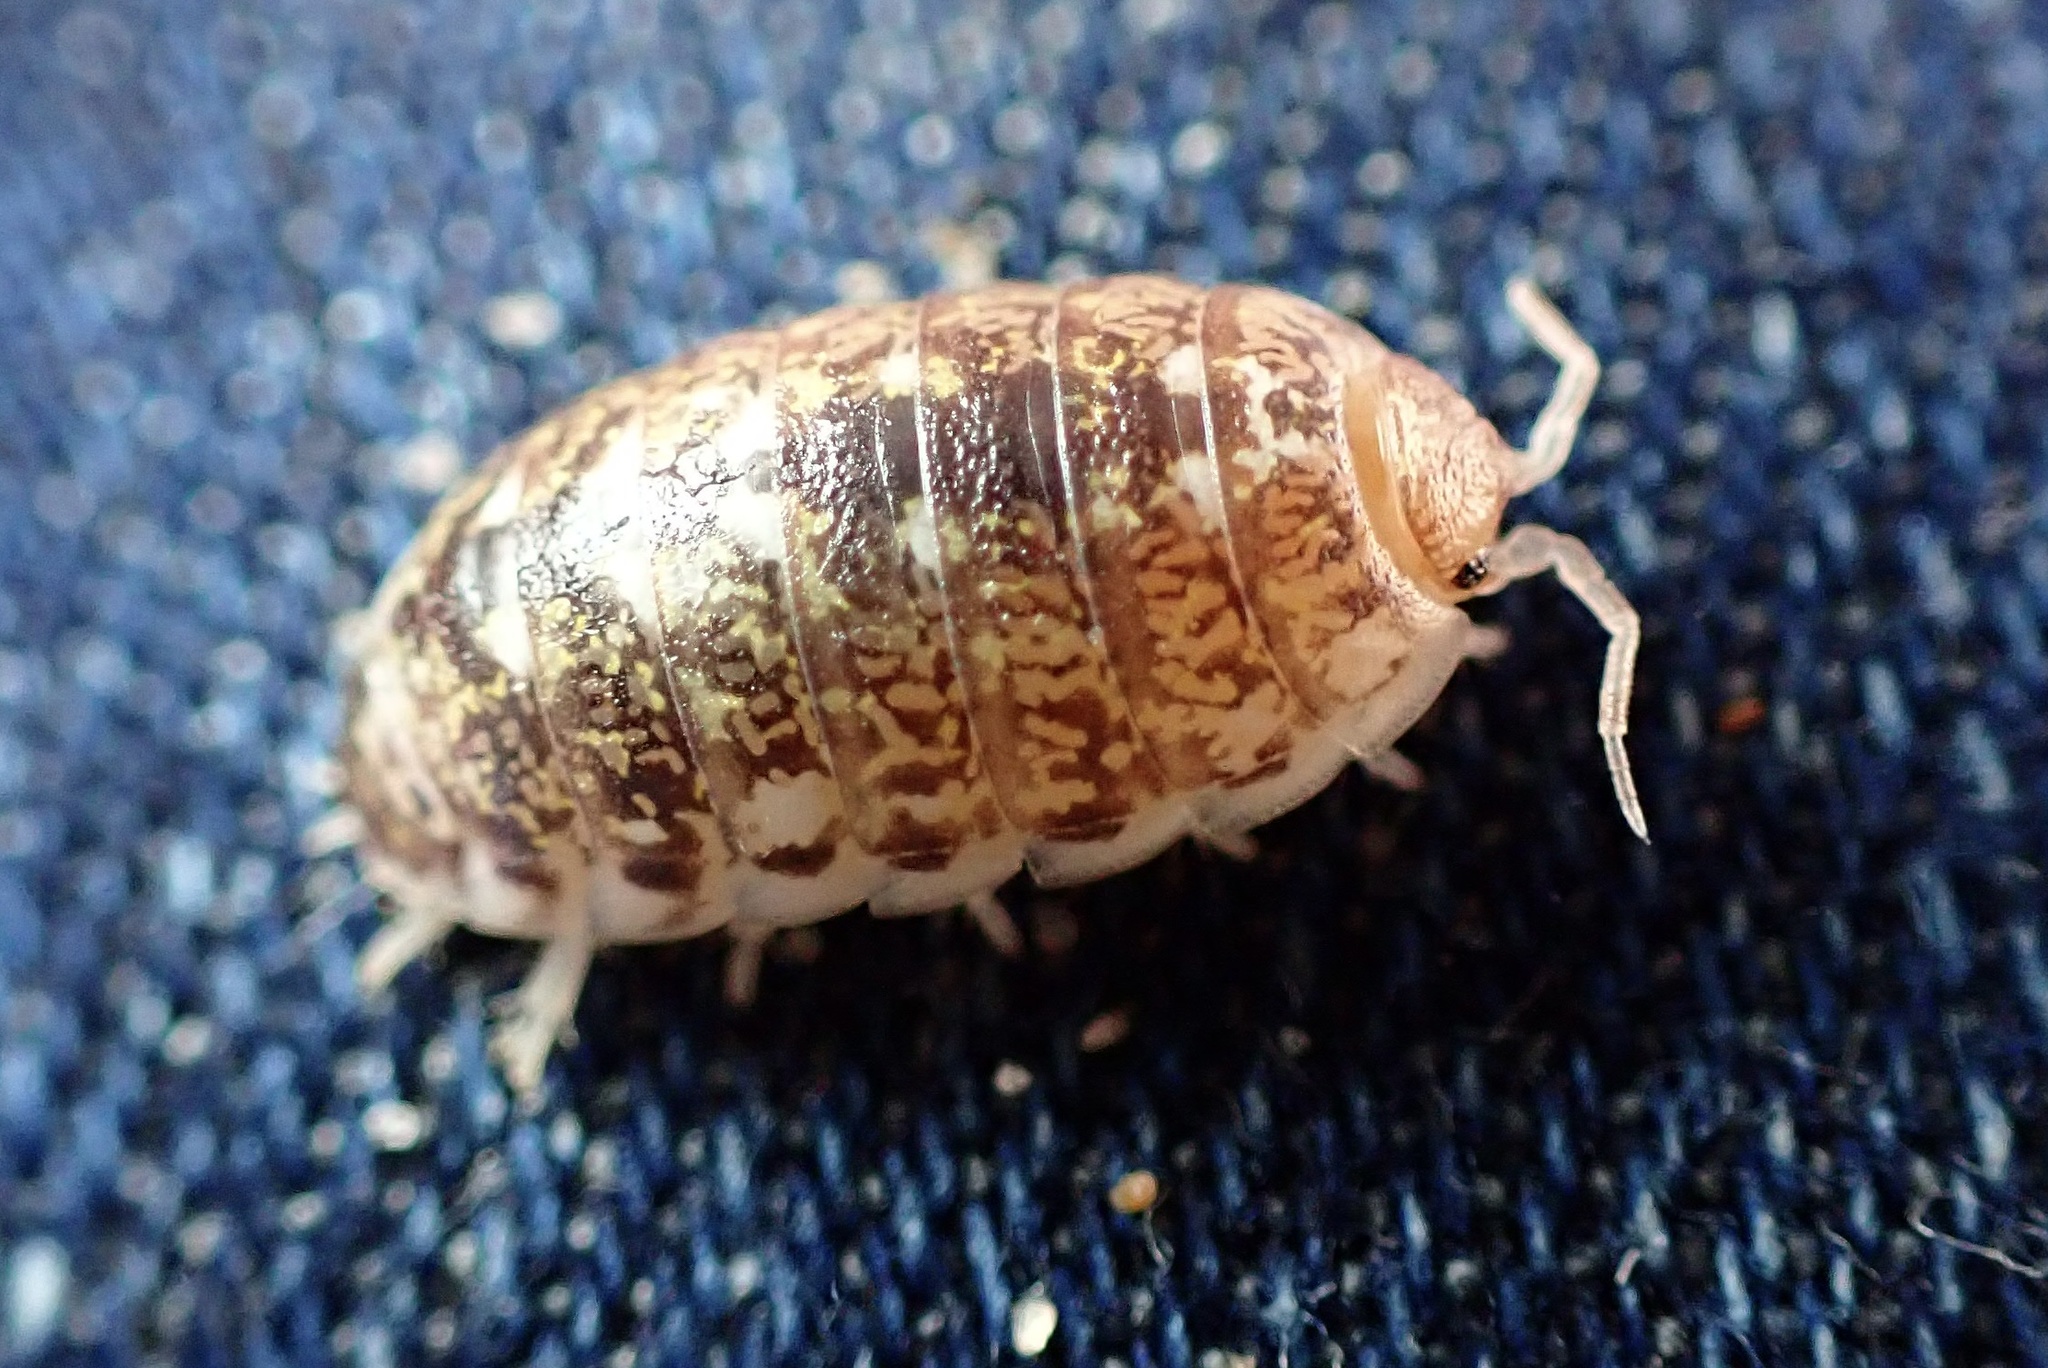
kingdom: Animalia
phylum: Arthropoda
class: Malacostraca
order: Isopoda
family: Alloniscidae
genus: Alloniscus
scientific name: Alloniscus perconvexus
